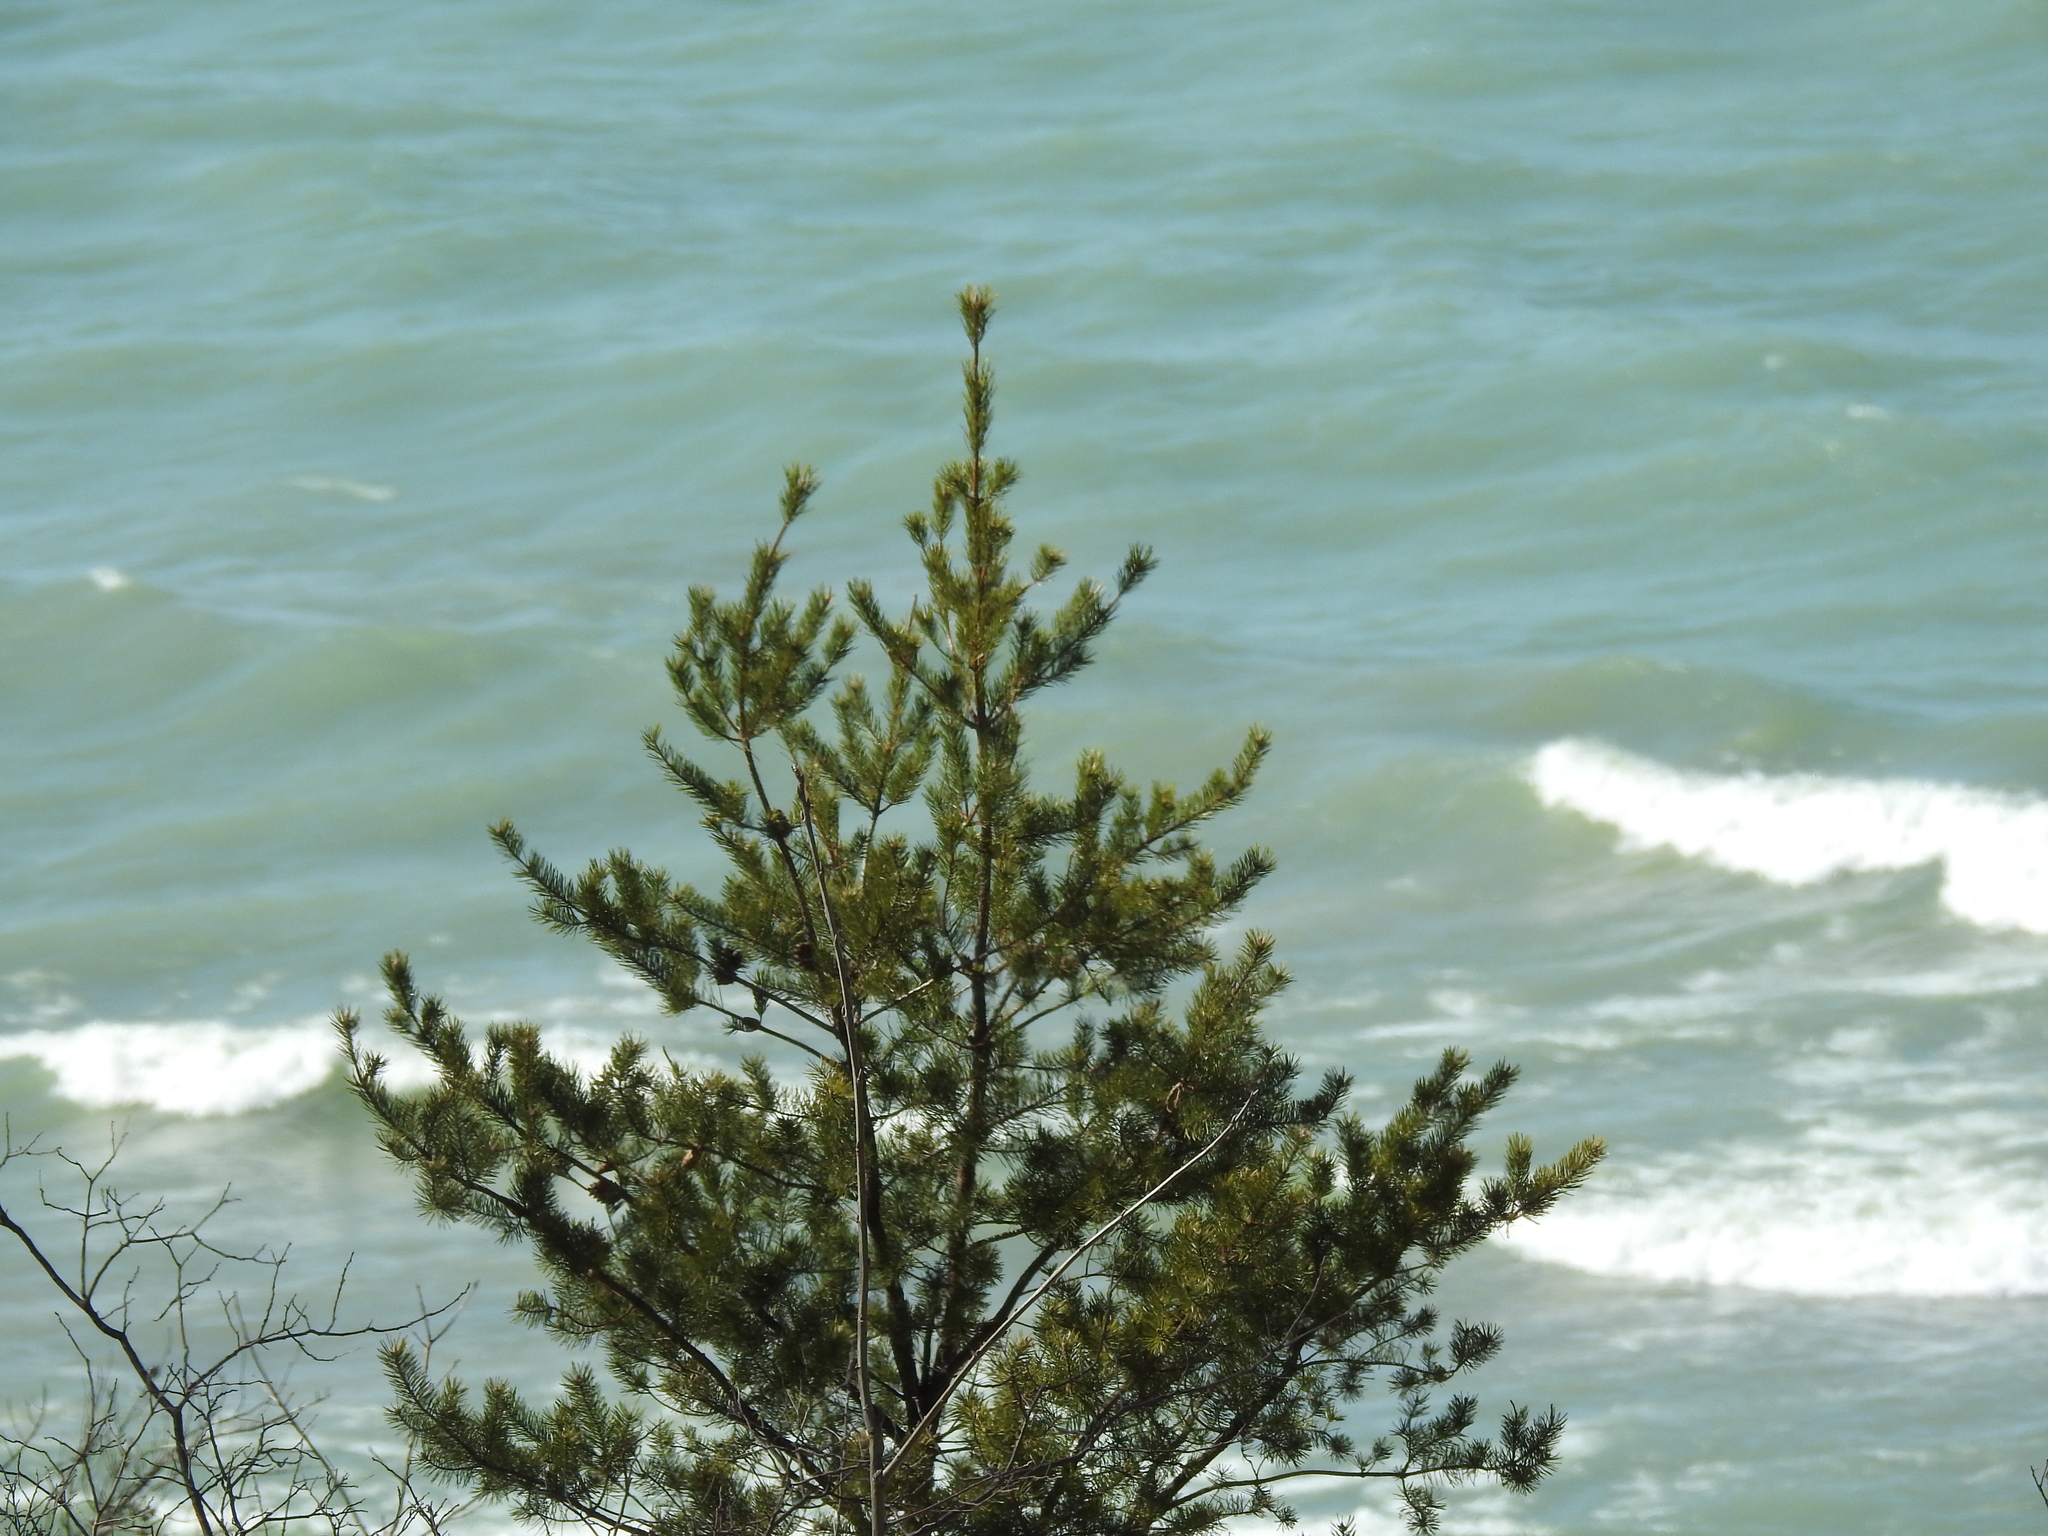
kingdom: Plantae
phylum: Tracheophyta
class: Pinopsida
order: Pinales
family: Pinaceae
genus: Pinus
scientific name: Pinus banksiana
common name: Jack pine
